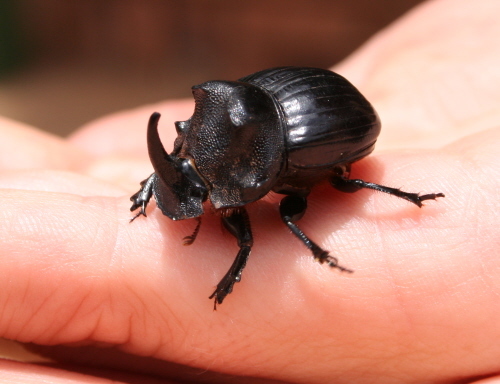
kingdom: Animalia
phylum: Arthropoda
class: Insecta
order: Coleoptera
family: Scarabaeidae
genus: Copris
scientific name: Copris elphenor
